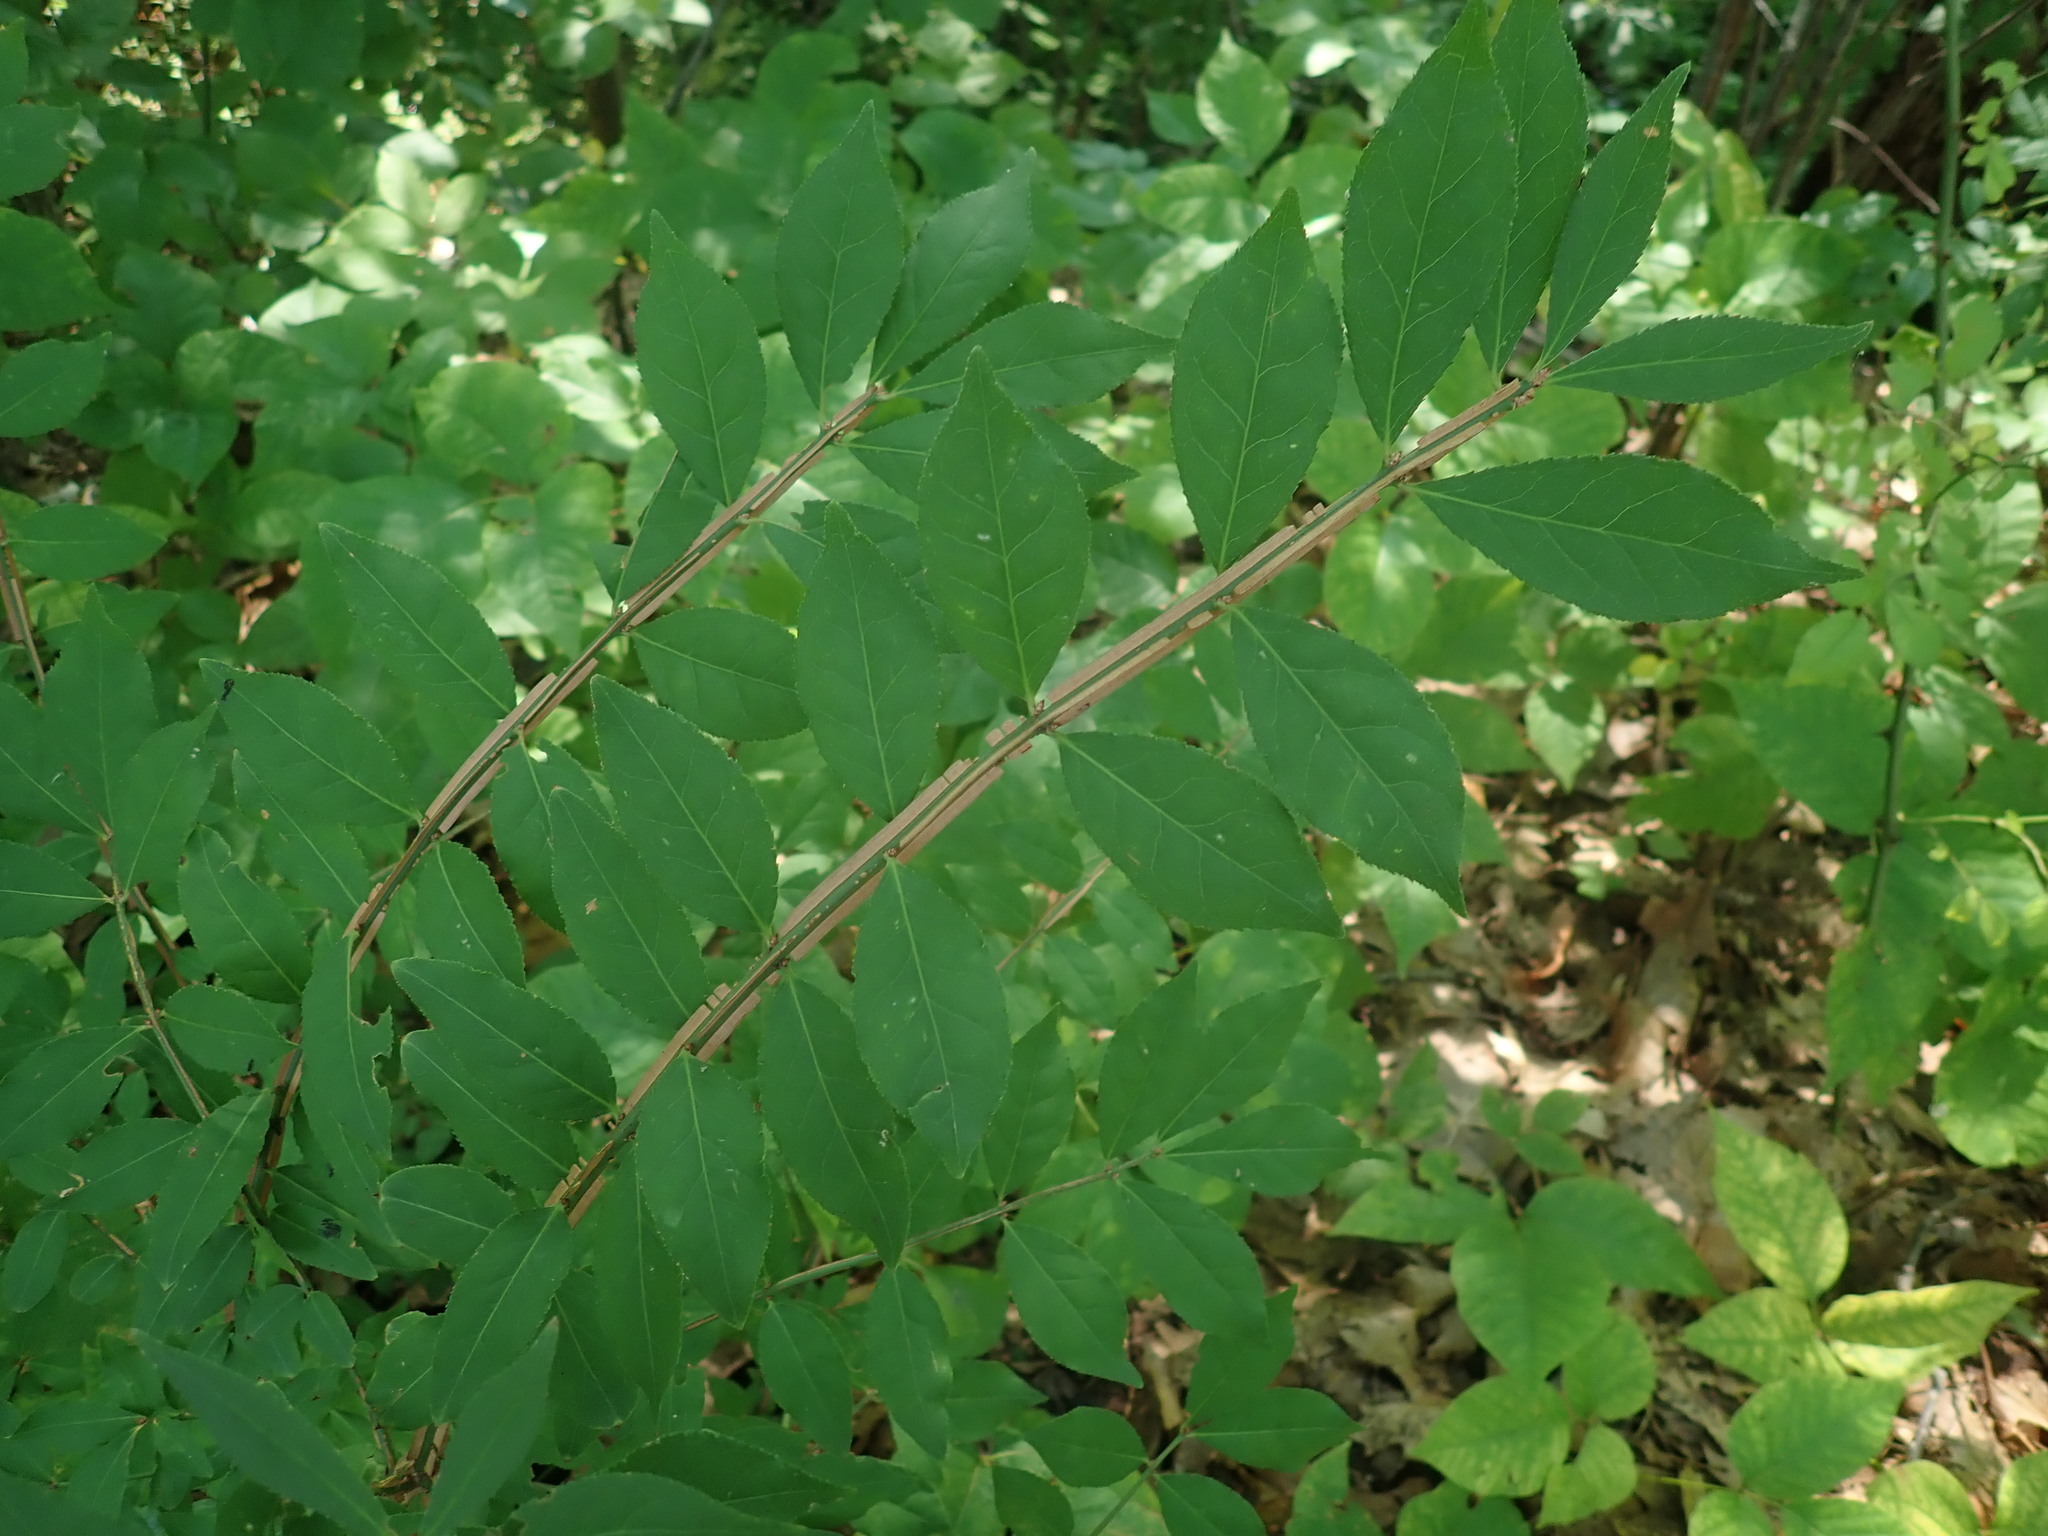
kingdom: Plantae
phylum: Tracheophyta
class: Magnoliopsida
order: Celastrales
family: Celastraceae
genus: Euonymus
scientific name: Euonymus alatus
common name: Winged euonymus
